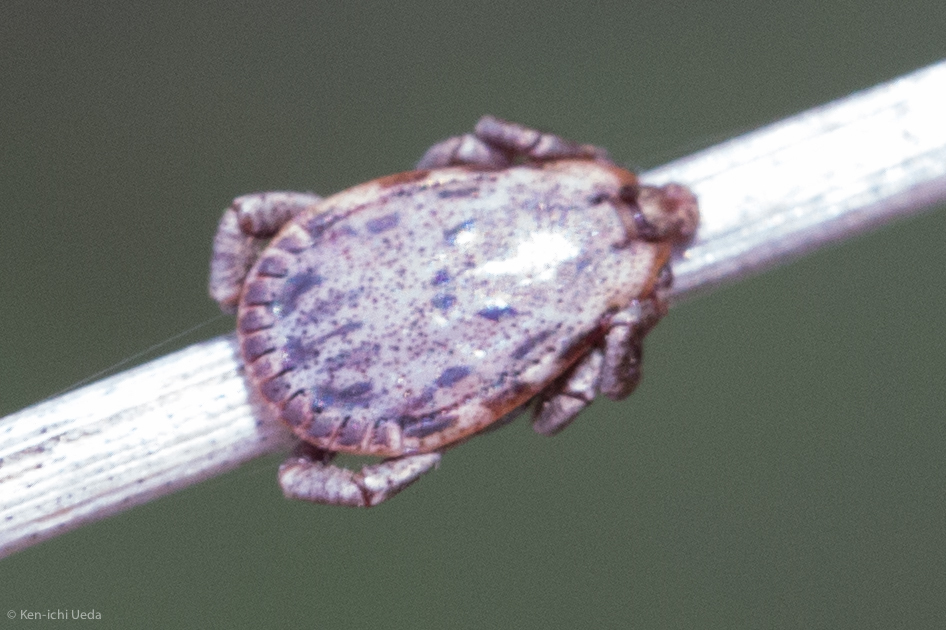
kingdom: Animalia
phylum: Arthropoda
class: Arachnida
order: Ixodida
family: Ixodidae
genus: Dermacentor
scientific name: Dermacentor occidentalis
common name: Net tick
